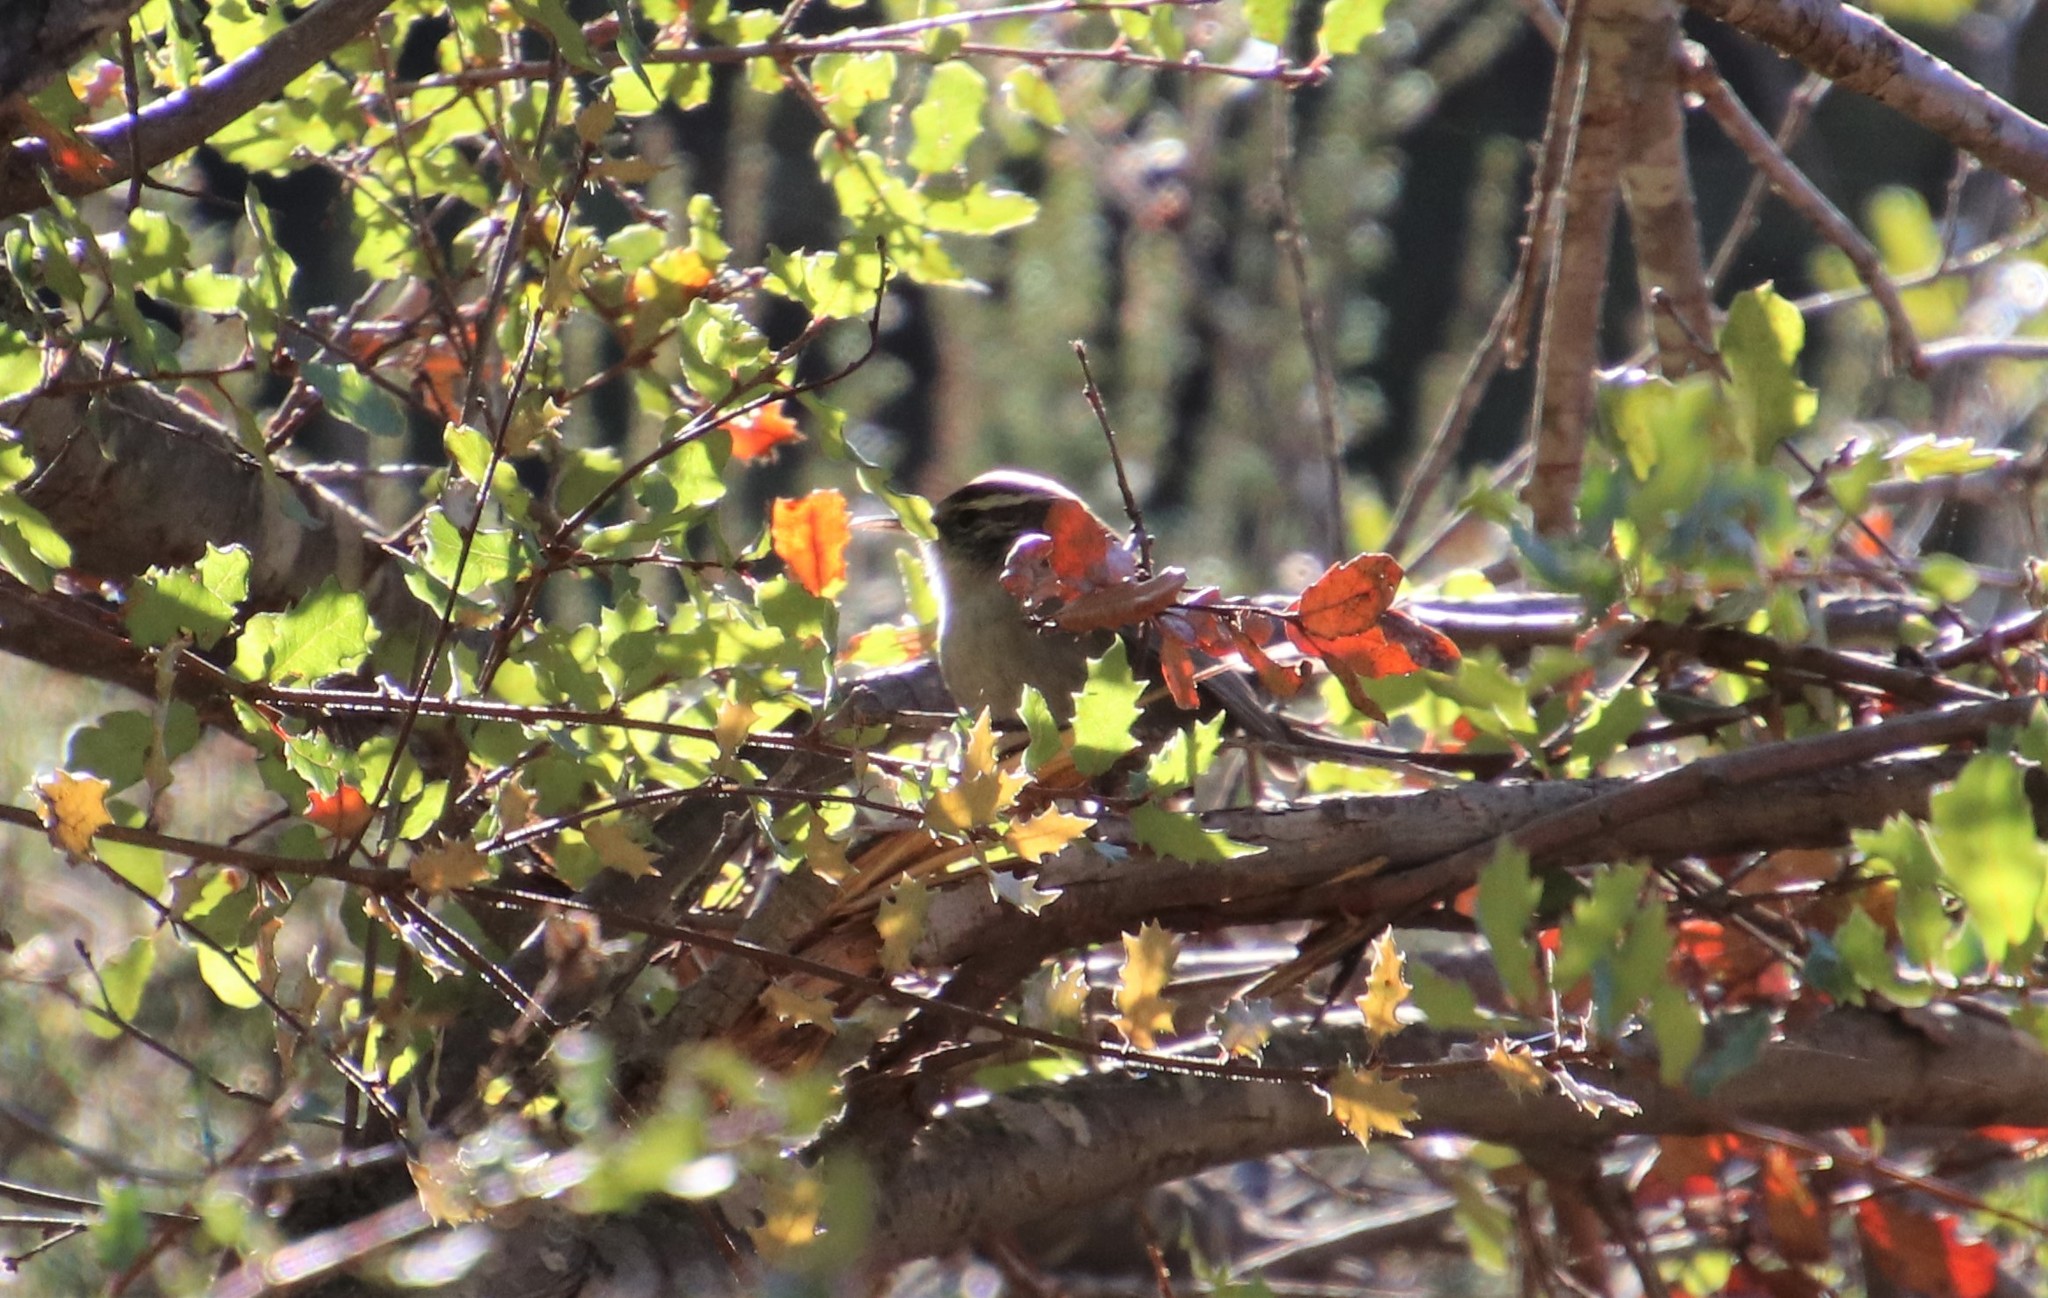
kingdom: Animalia
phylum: Chordata
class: Aves
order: Passeriformes
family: Troglodytidae
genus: Thryomanes
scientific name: Thryomanes bewickii
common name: Bewick's wren
